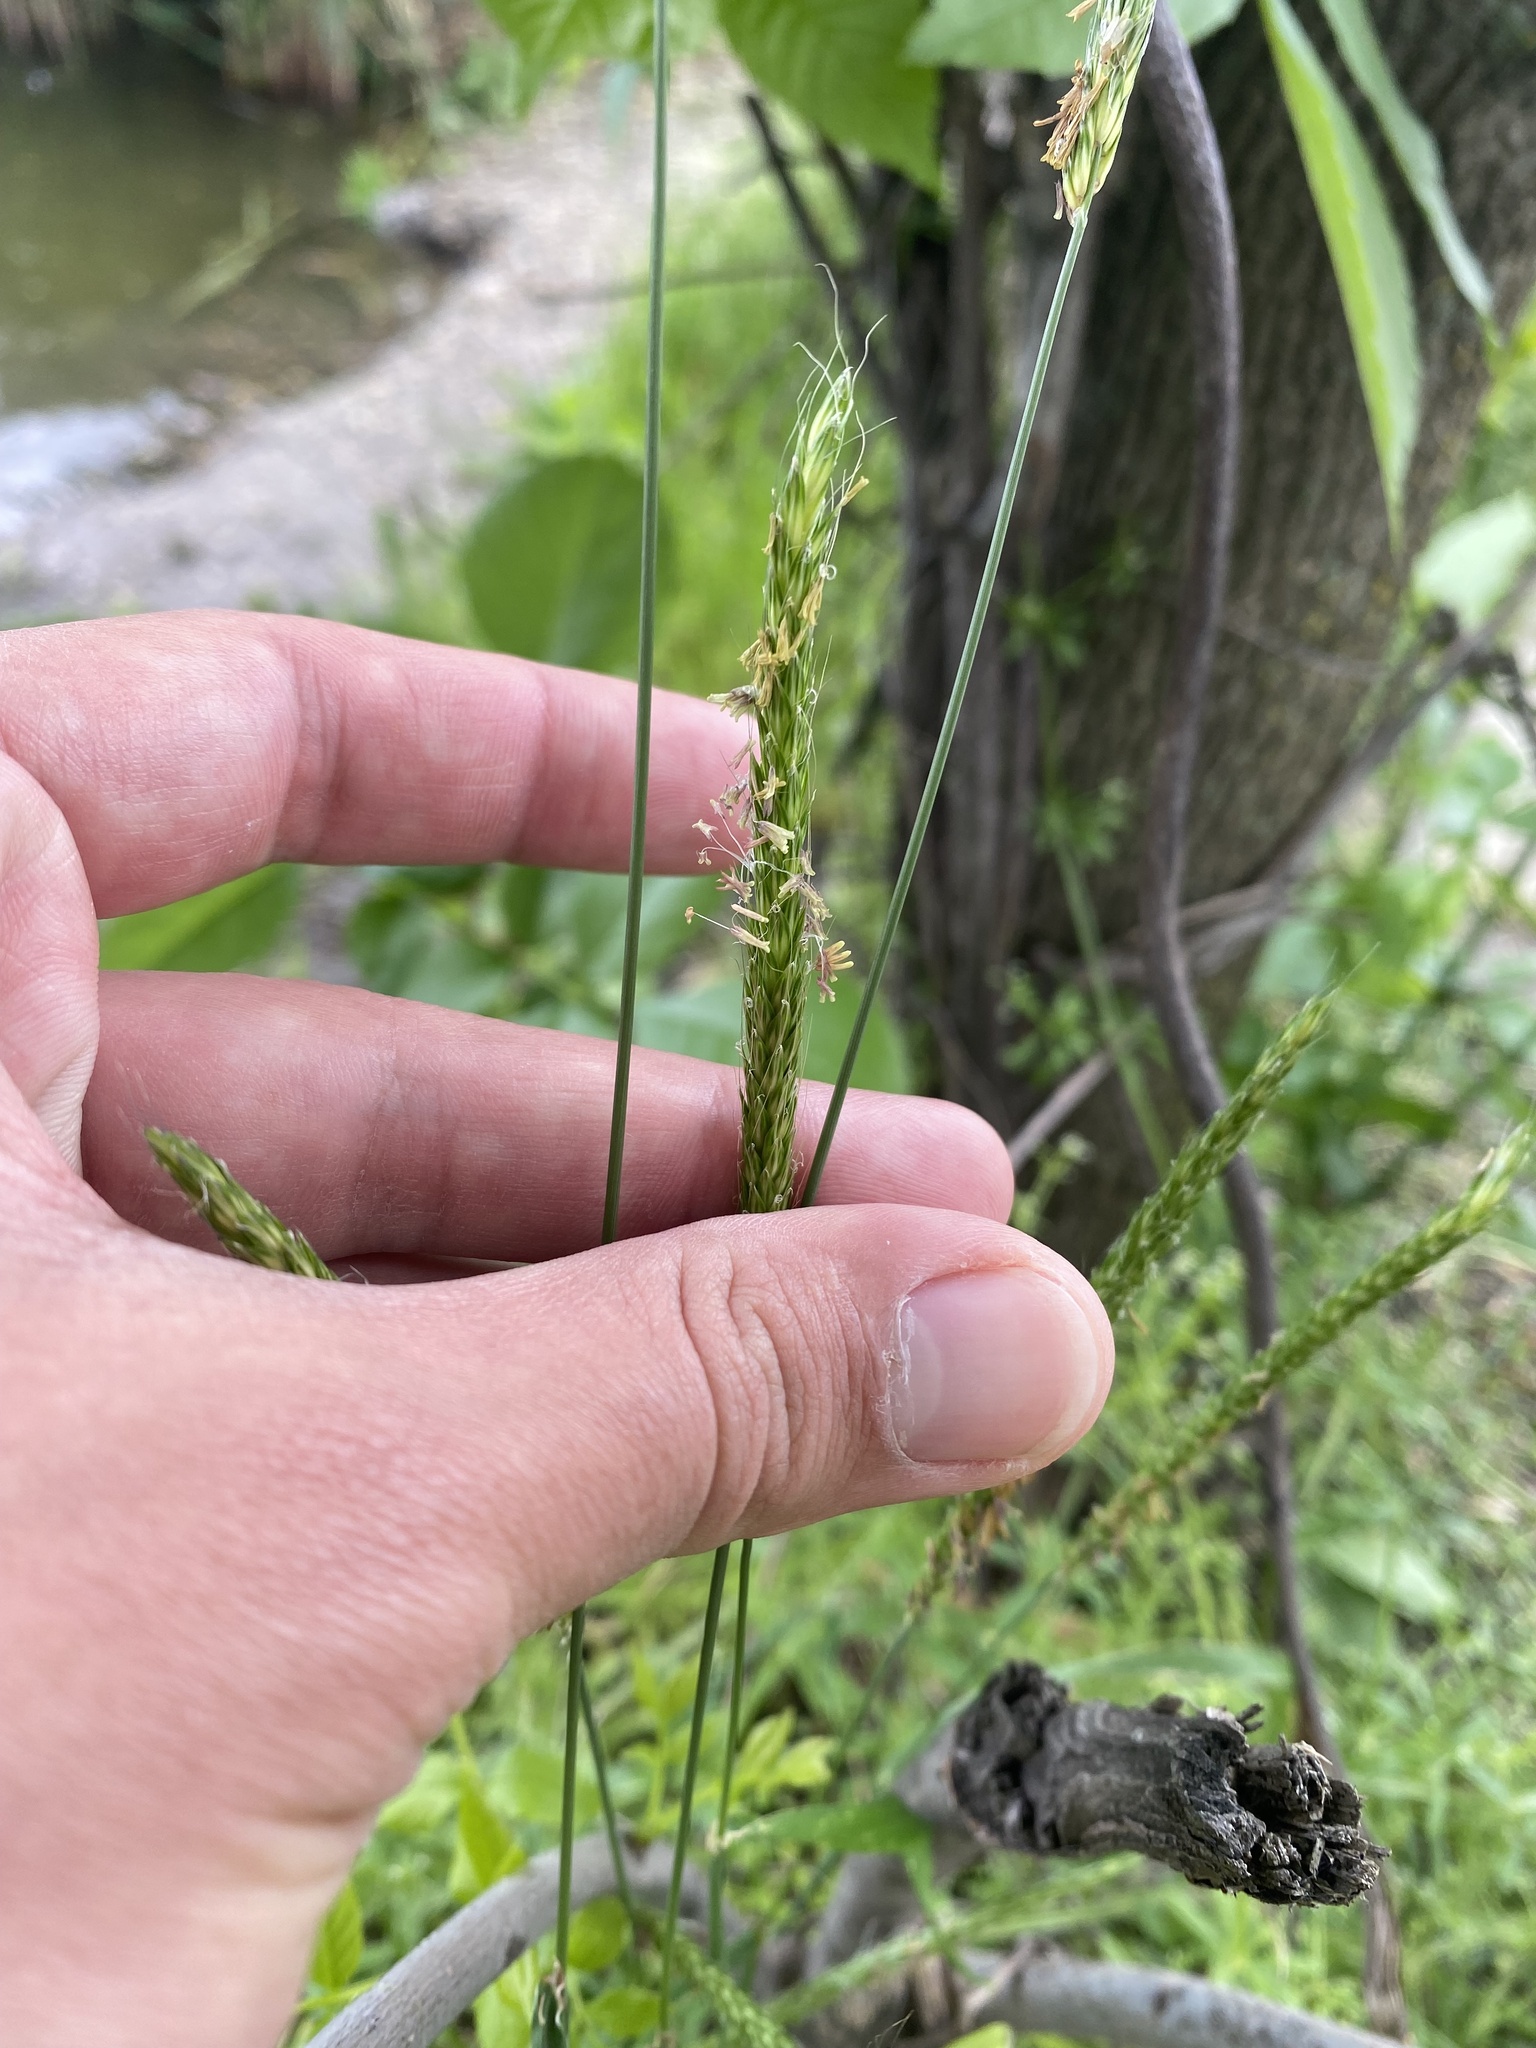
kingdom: Plantae
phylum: Tracheophyta
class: Liliopsida
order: Poales
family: Poaceae
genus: Alopecurus
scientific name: Alopecurus myosuroides
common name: Black-grass
